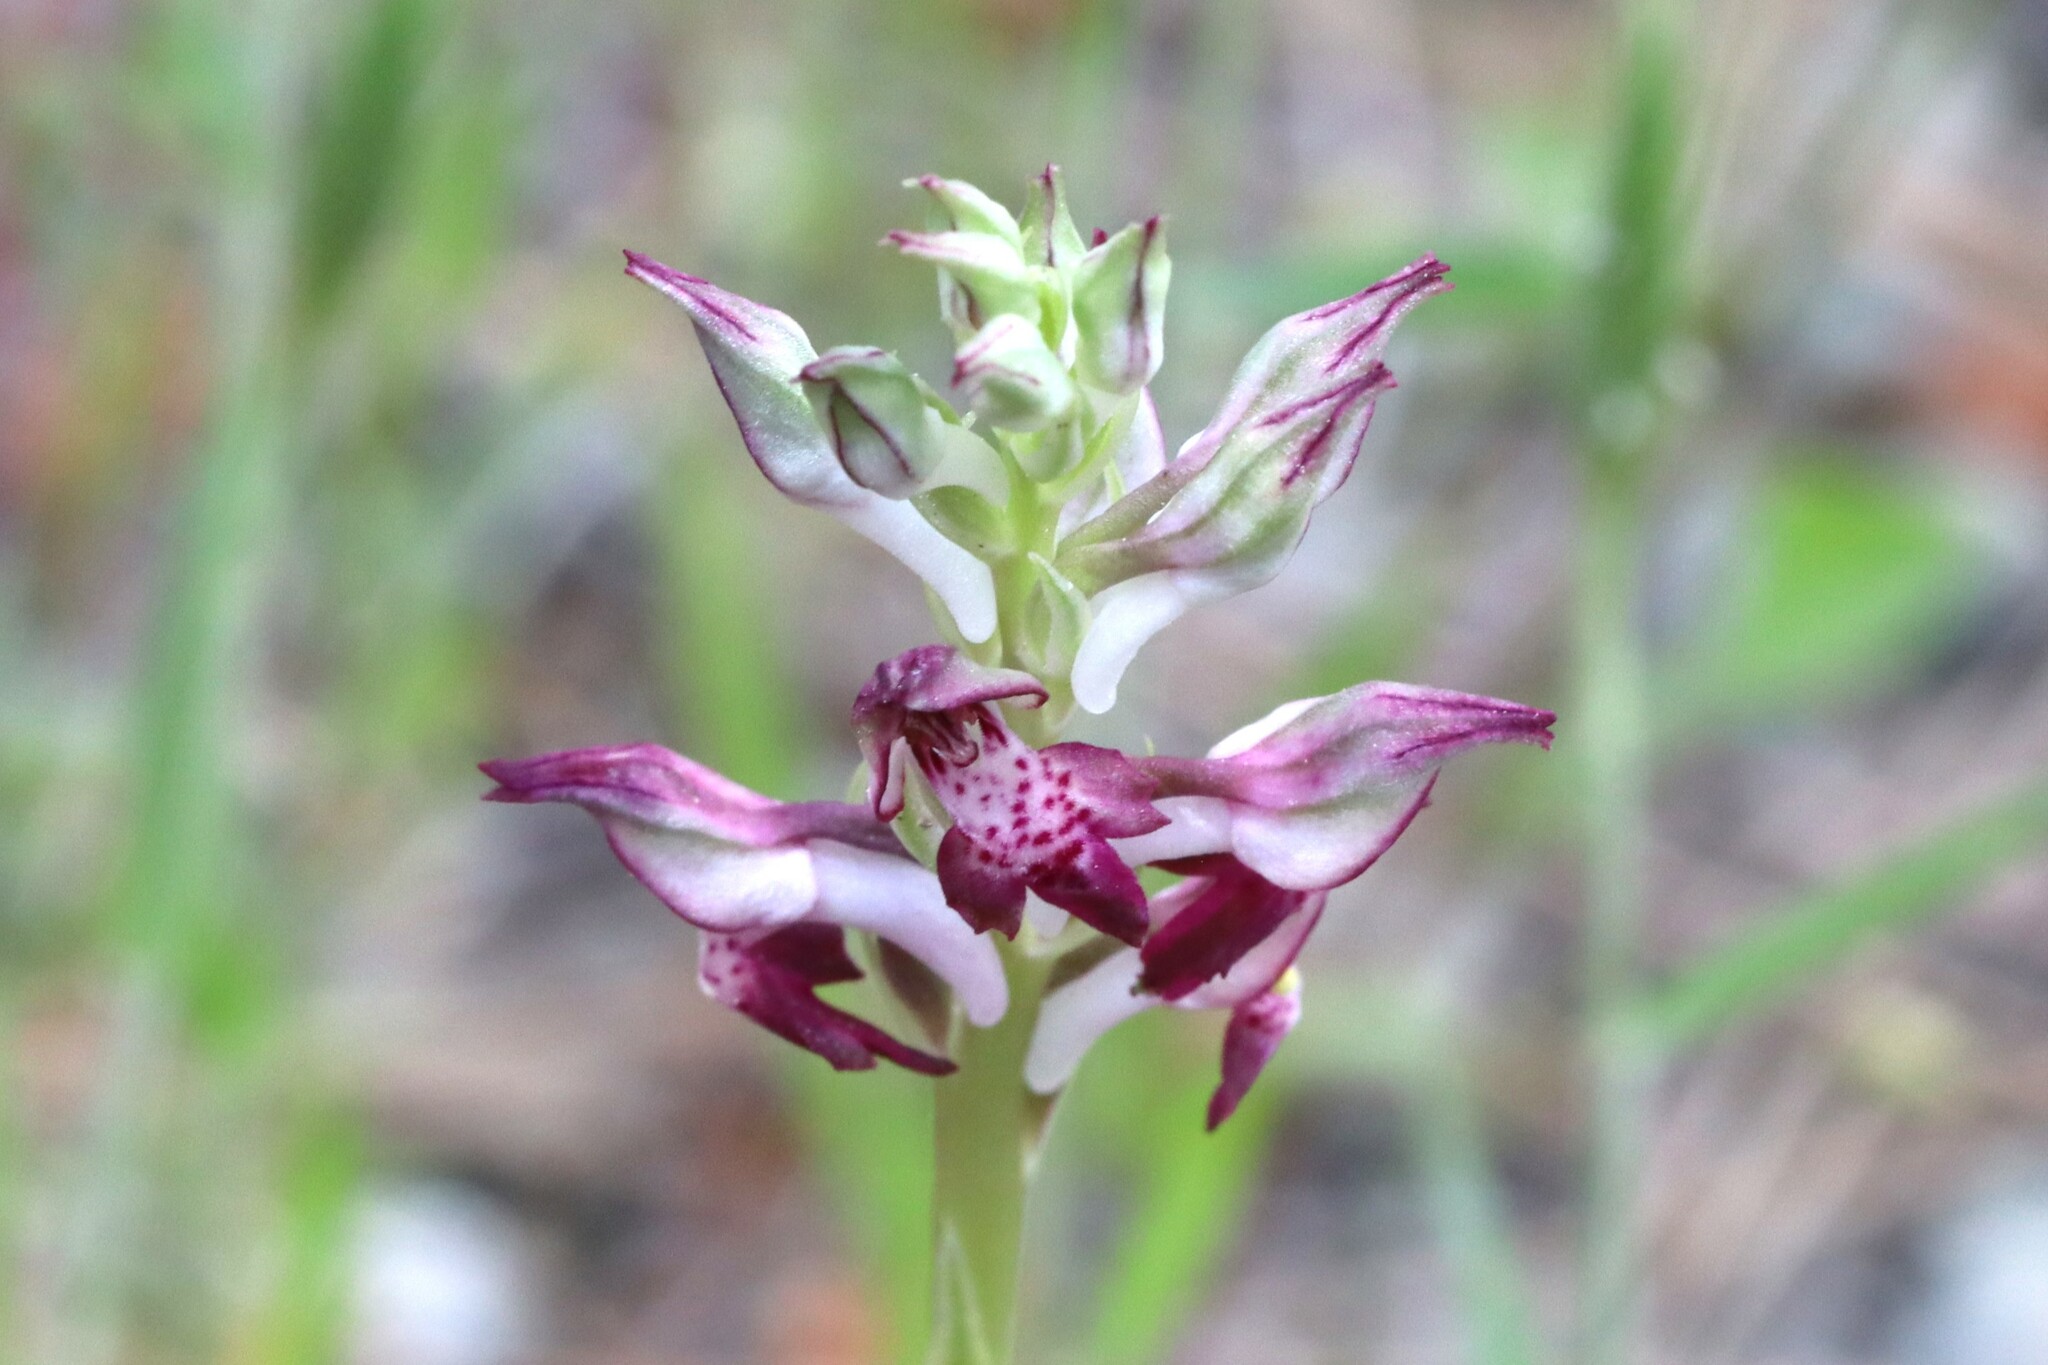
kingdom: Plantae
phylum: Tracheophyta
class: Liliopsida
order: Asparagales
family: Orchidaceae
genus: Anacamptis
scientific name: Anacamptis coriophora
